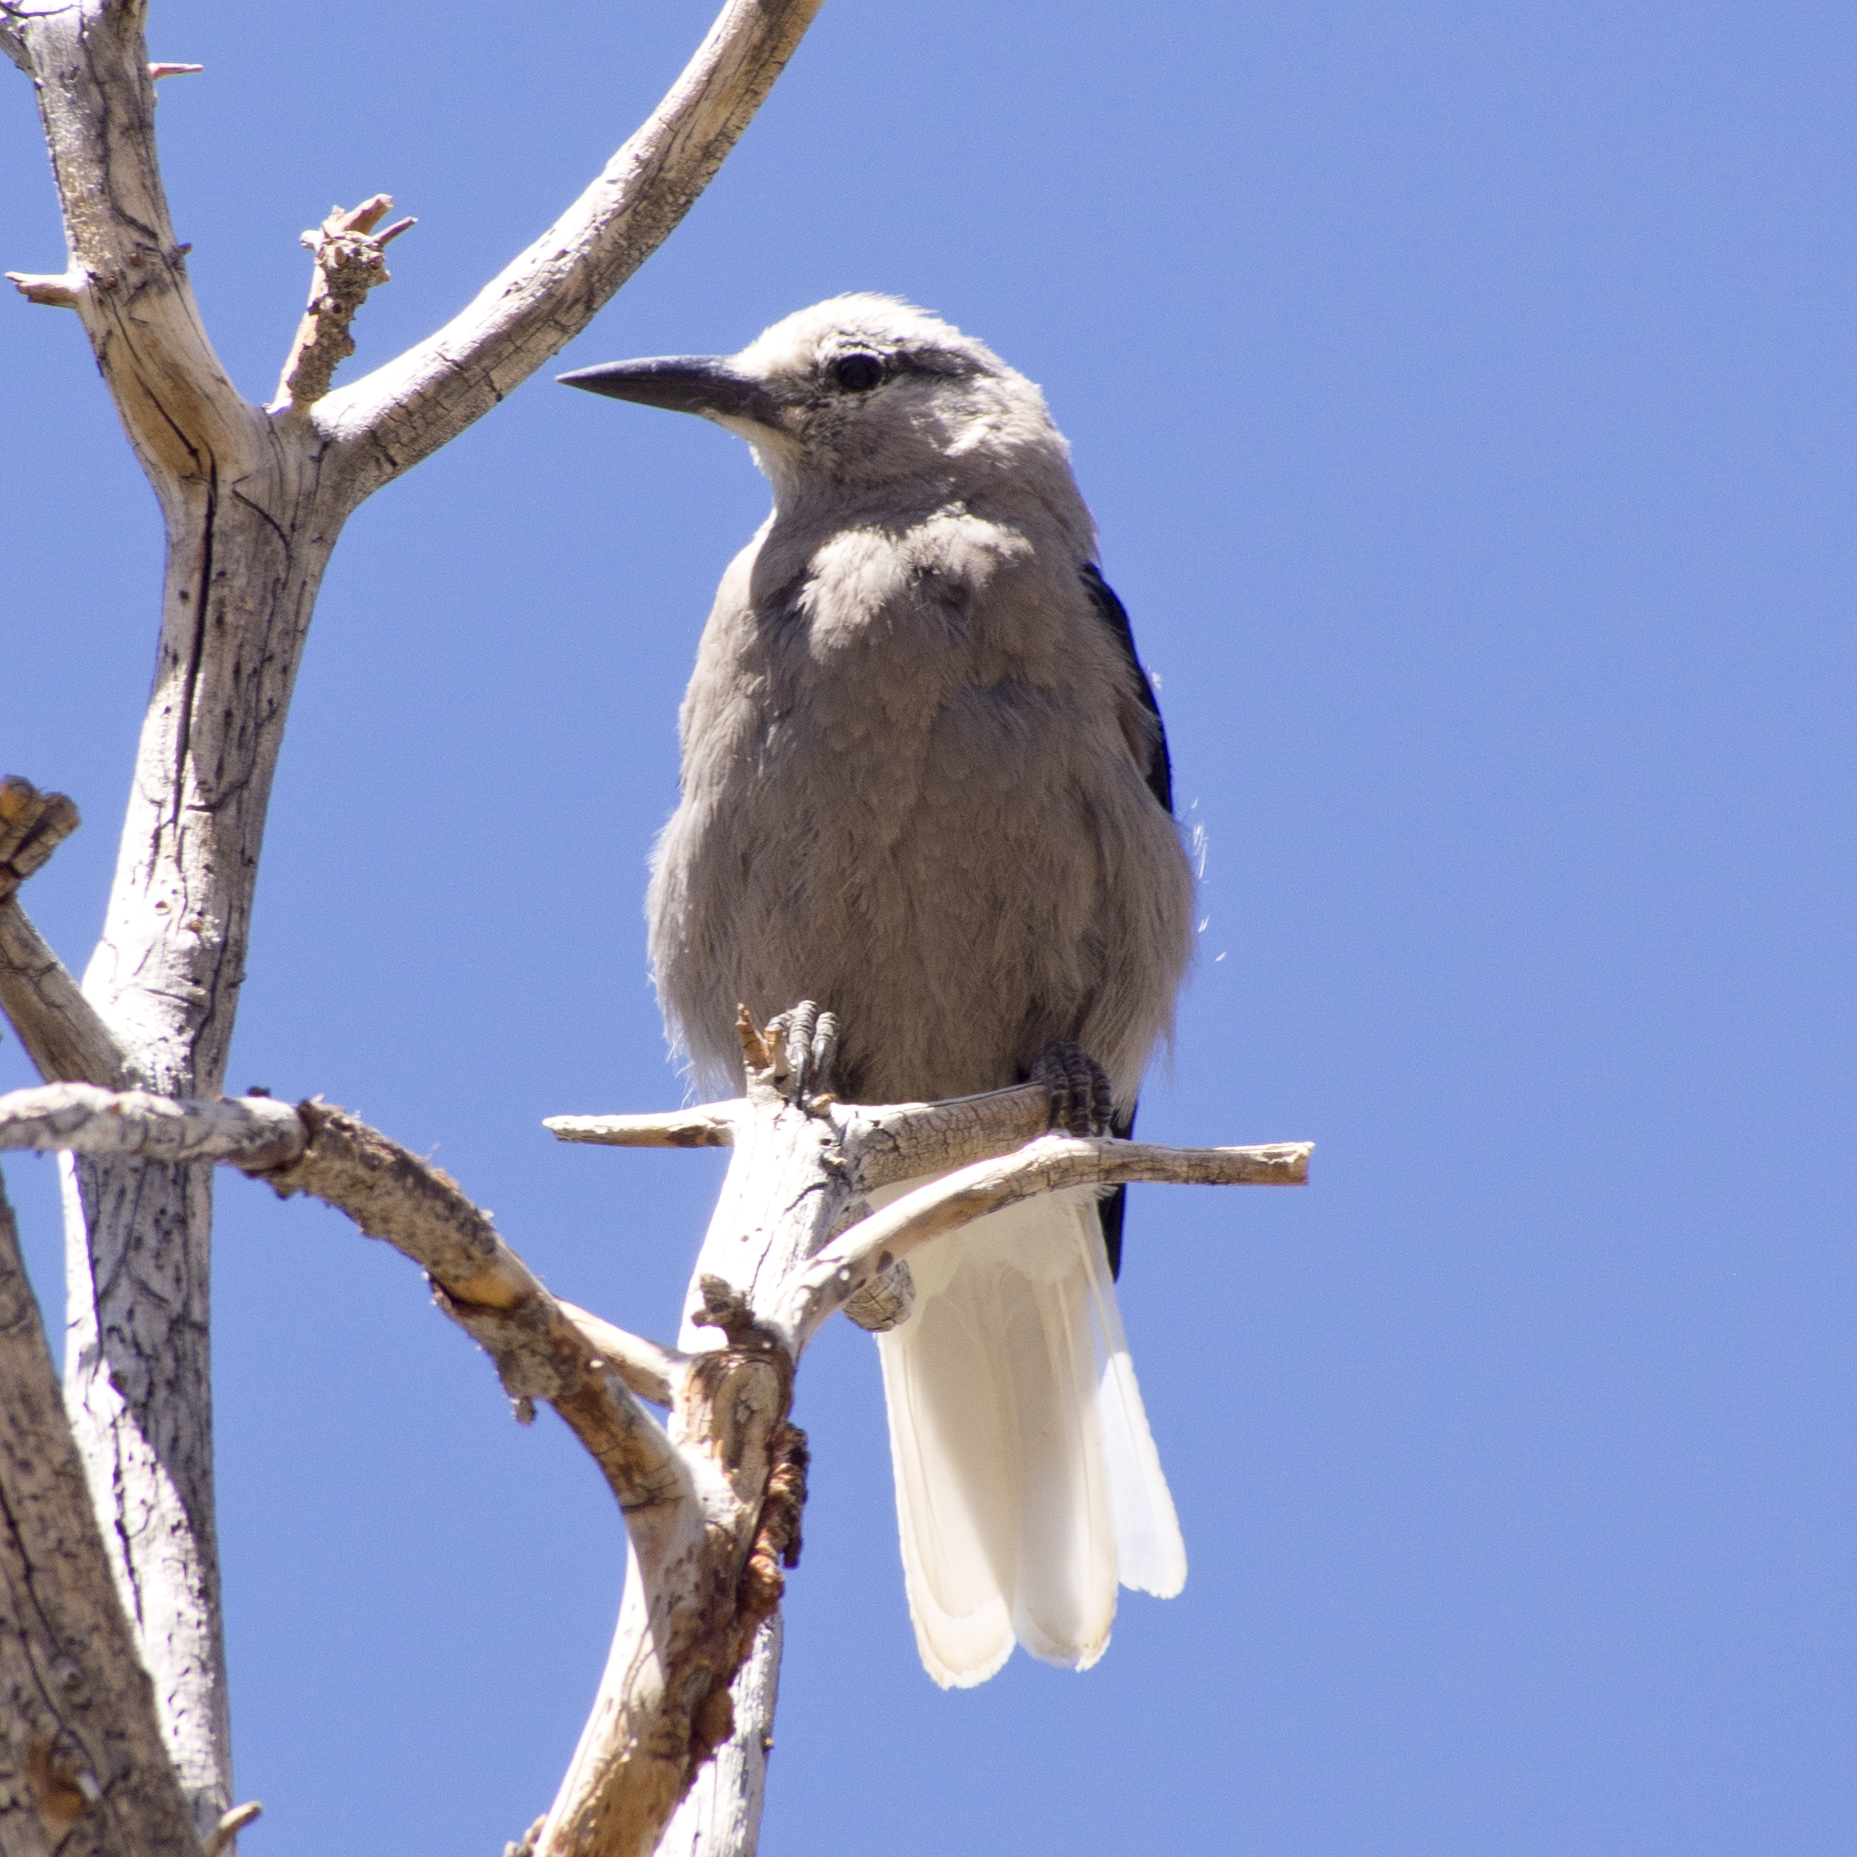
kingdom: Animalia
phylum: Chordata
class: Aves
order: Passeriformes
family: Corvidae
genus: Nucifraga
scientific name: Nucifraga columbiana
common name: Clark's nutcracker
